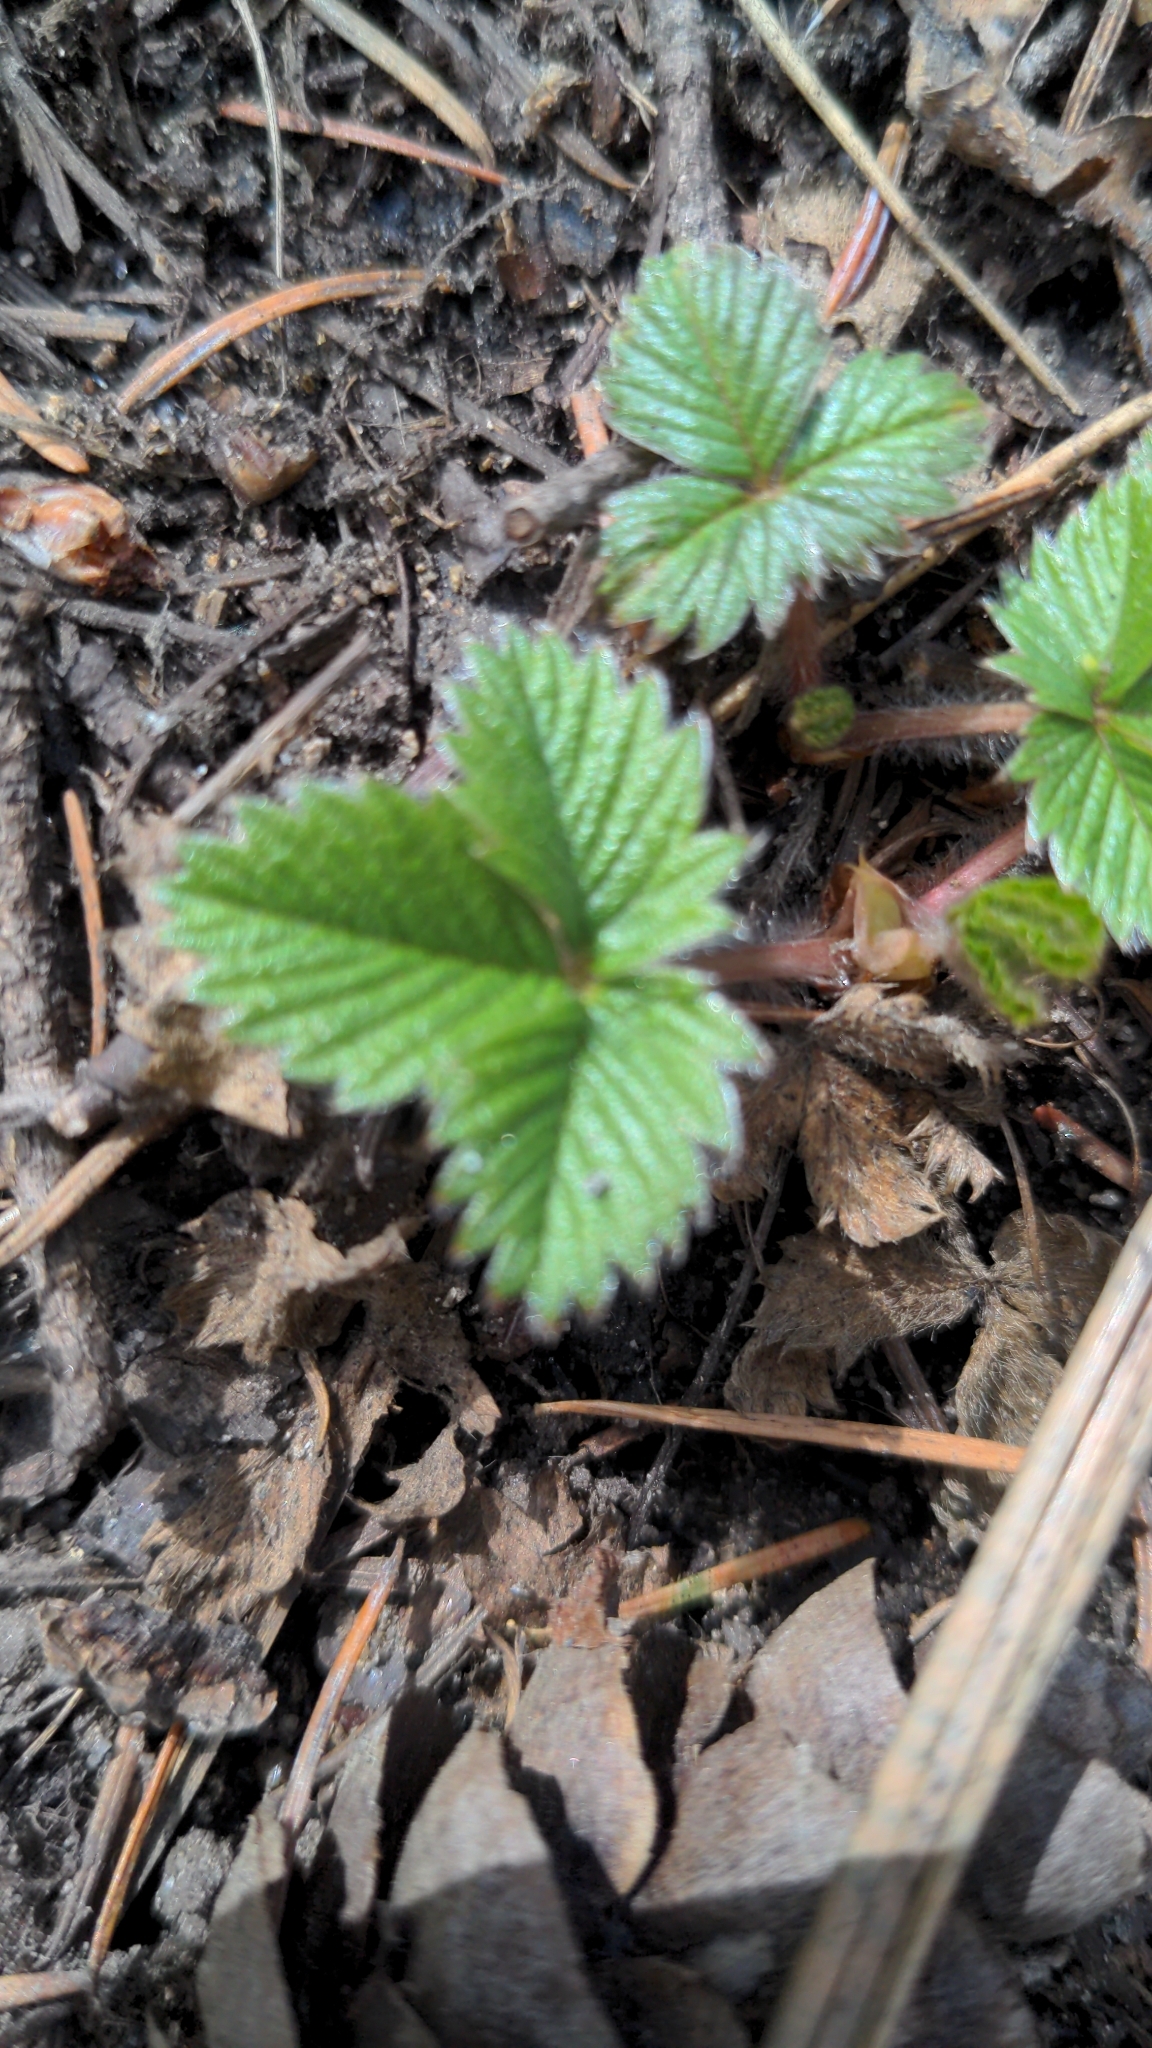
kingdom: Plantae
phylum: Tracheophyta
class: Magnoliopsida
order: Rosales
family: Rosaceae
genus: Fragaria
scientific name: Fragaria vesca
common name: Wild strawberry
